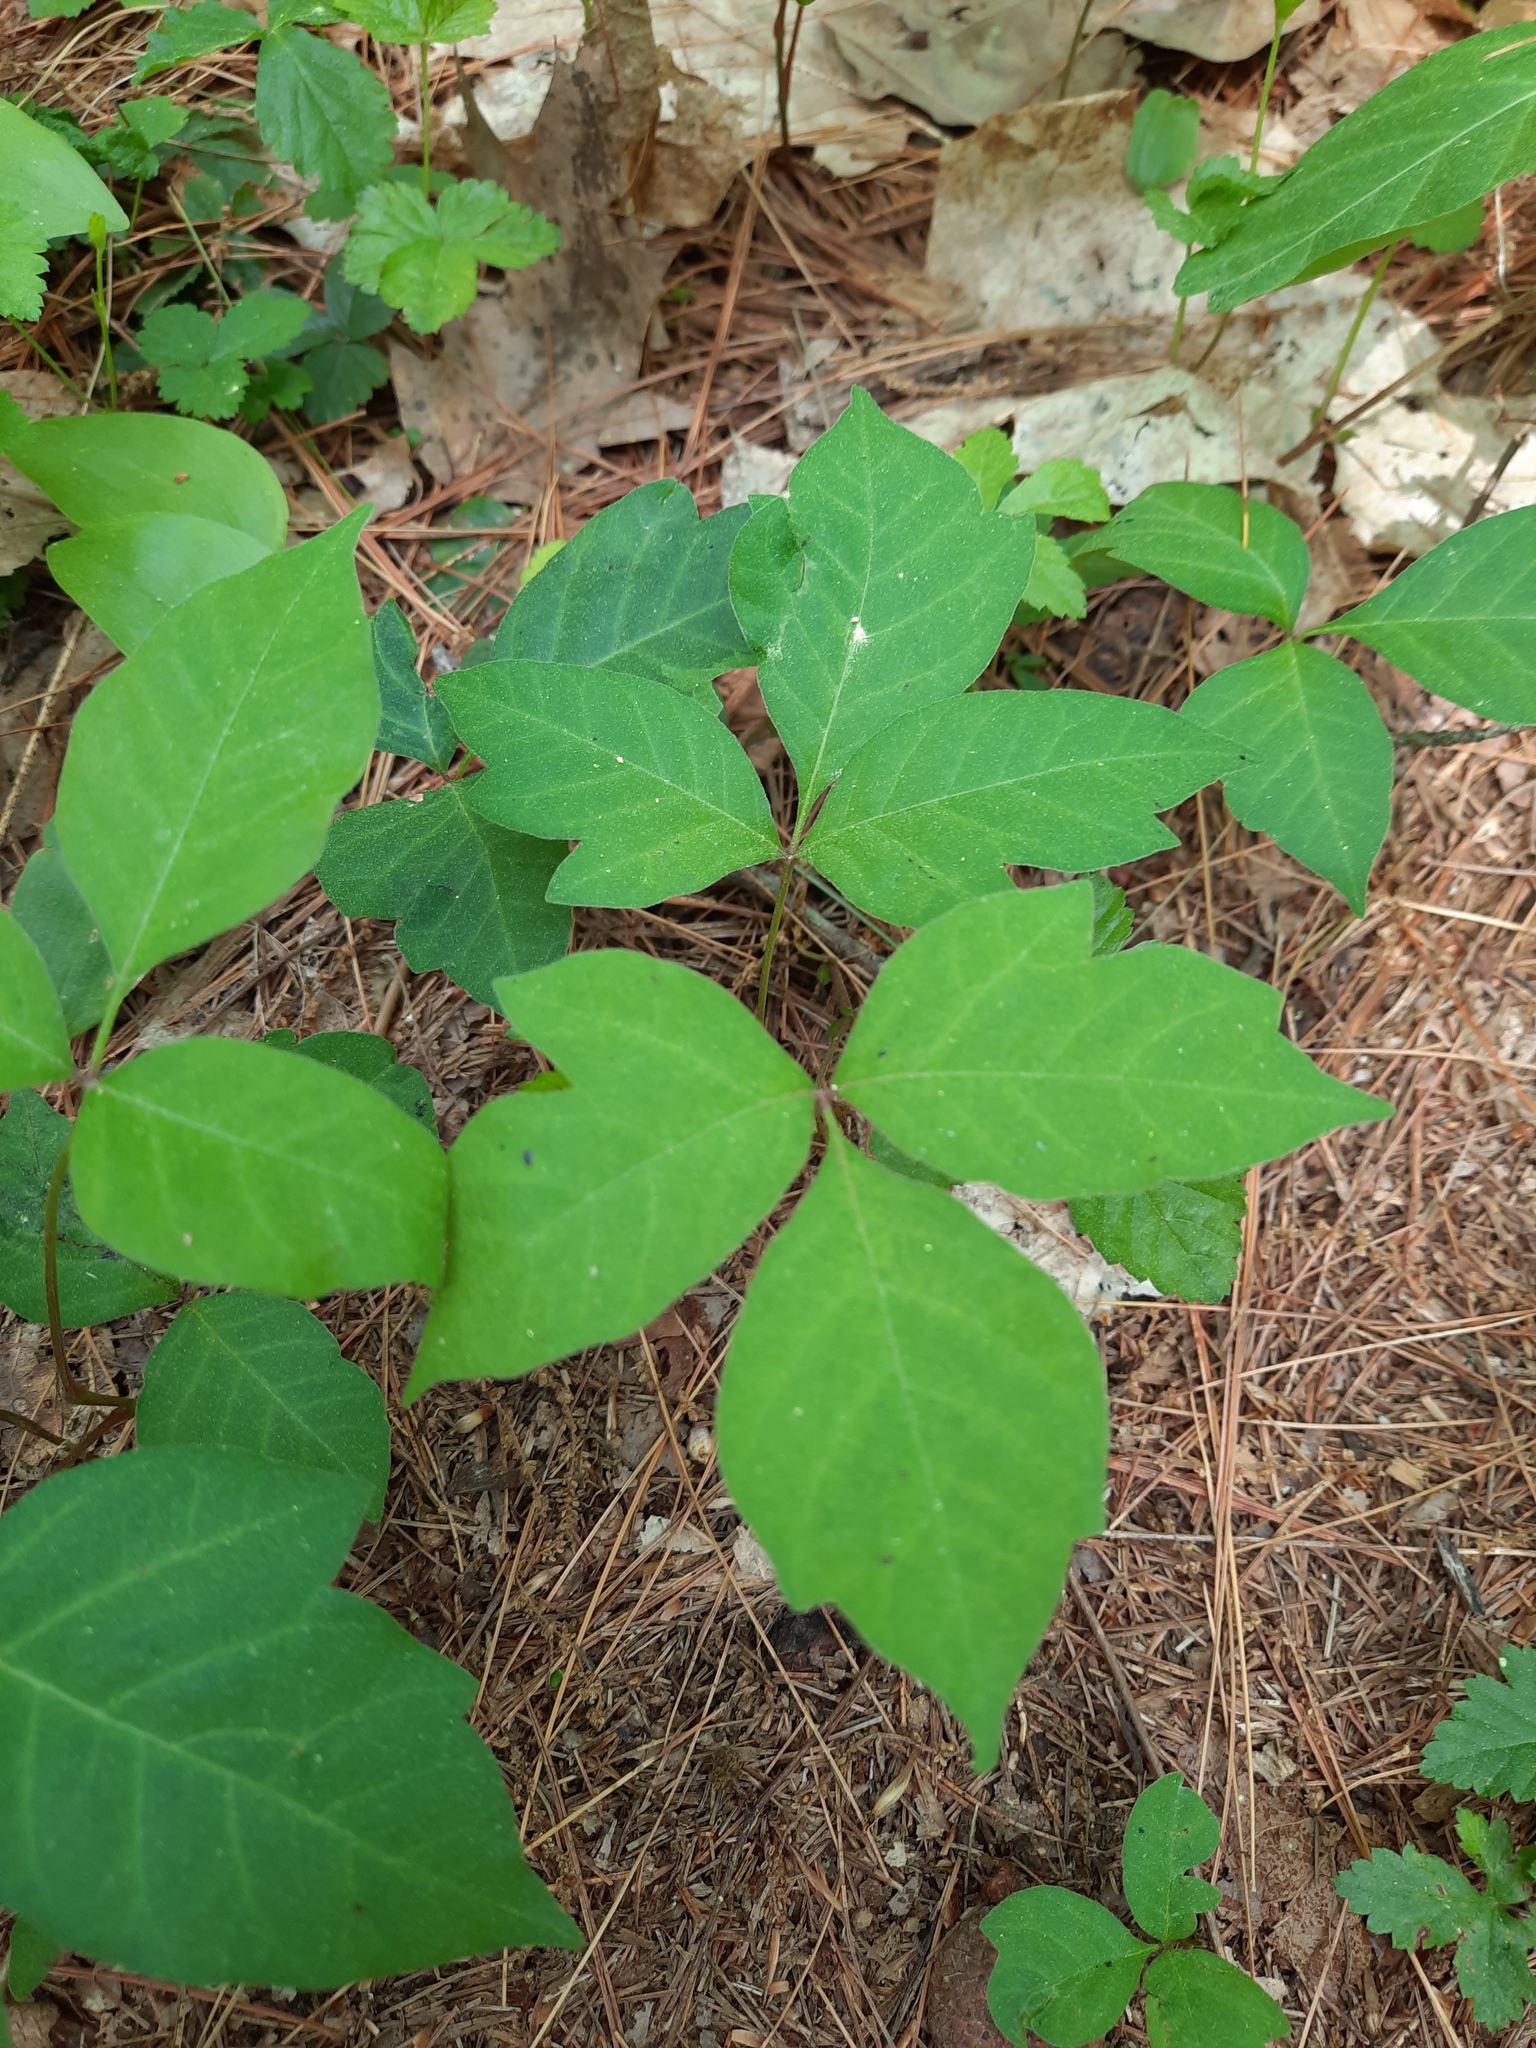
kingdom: Plantae
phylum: Tracheophyta
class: Magnoliopsida
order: Sapindales
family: Anacardiaceae
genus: Toxicodendron
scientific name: Toxicodendron radicans
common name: Poison ivy
